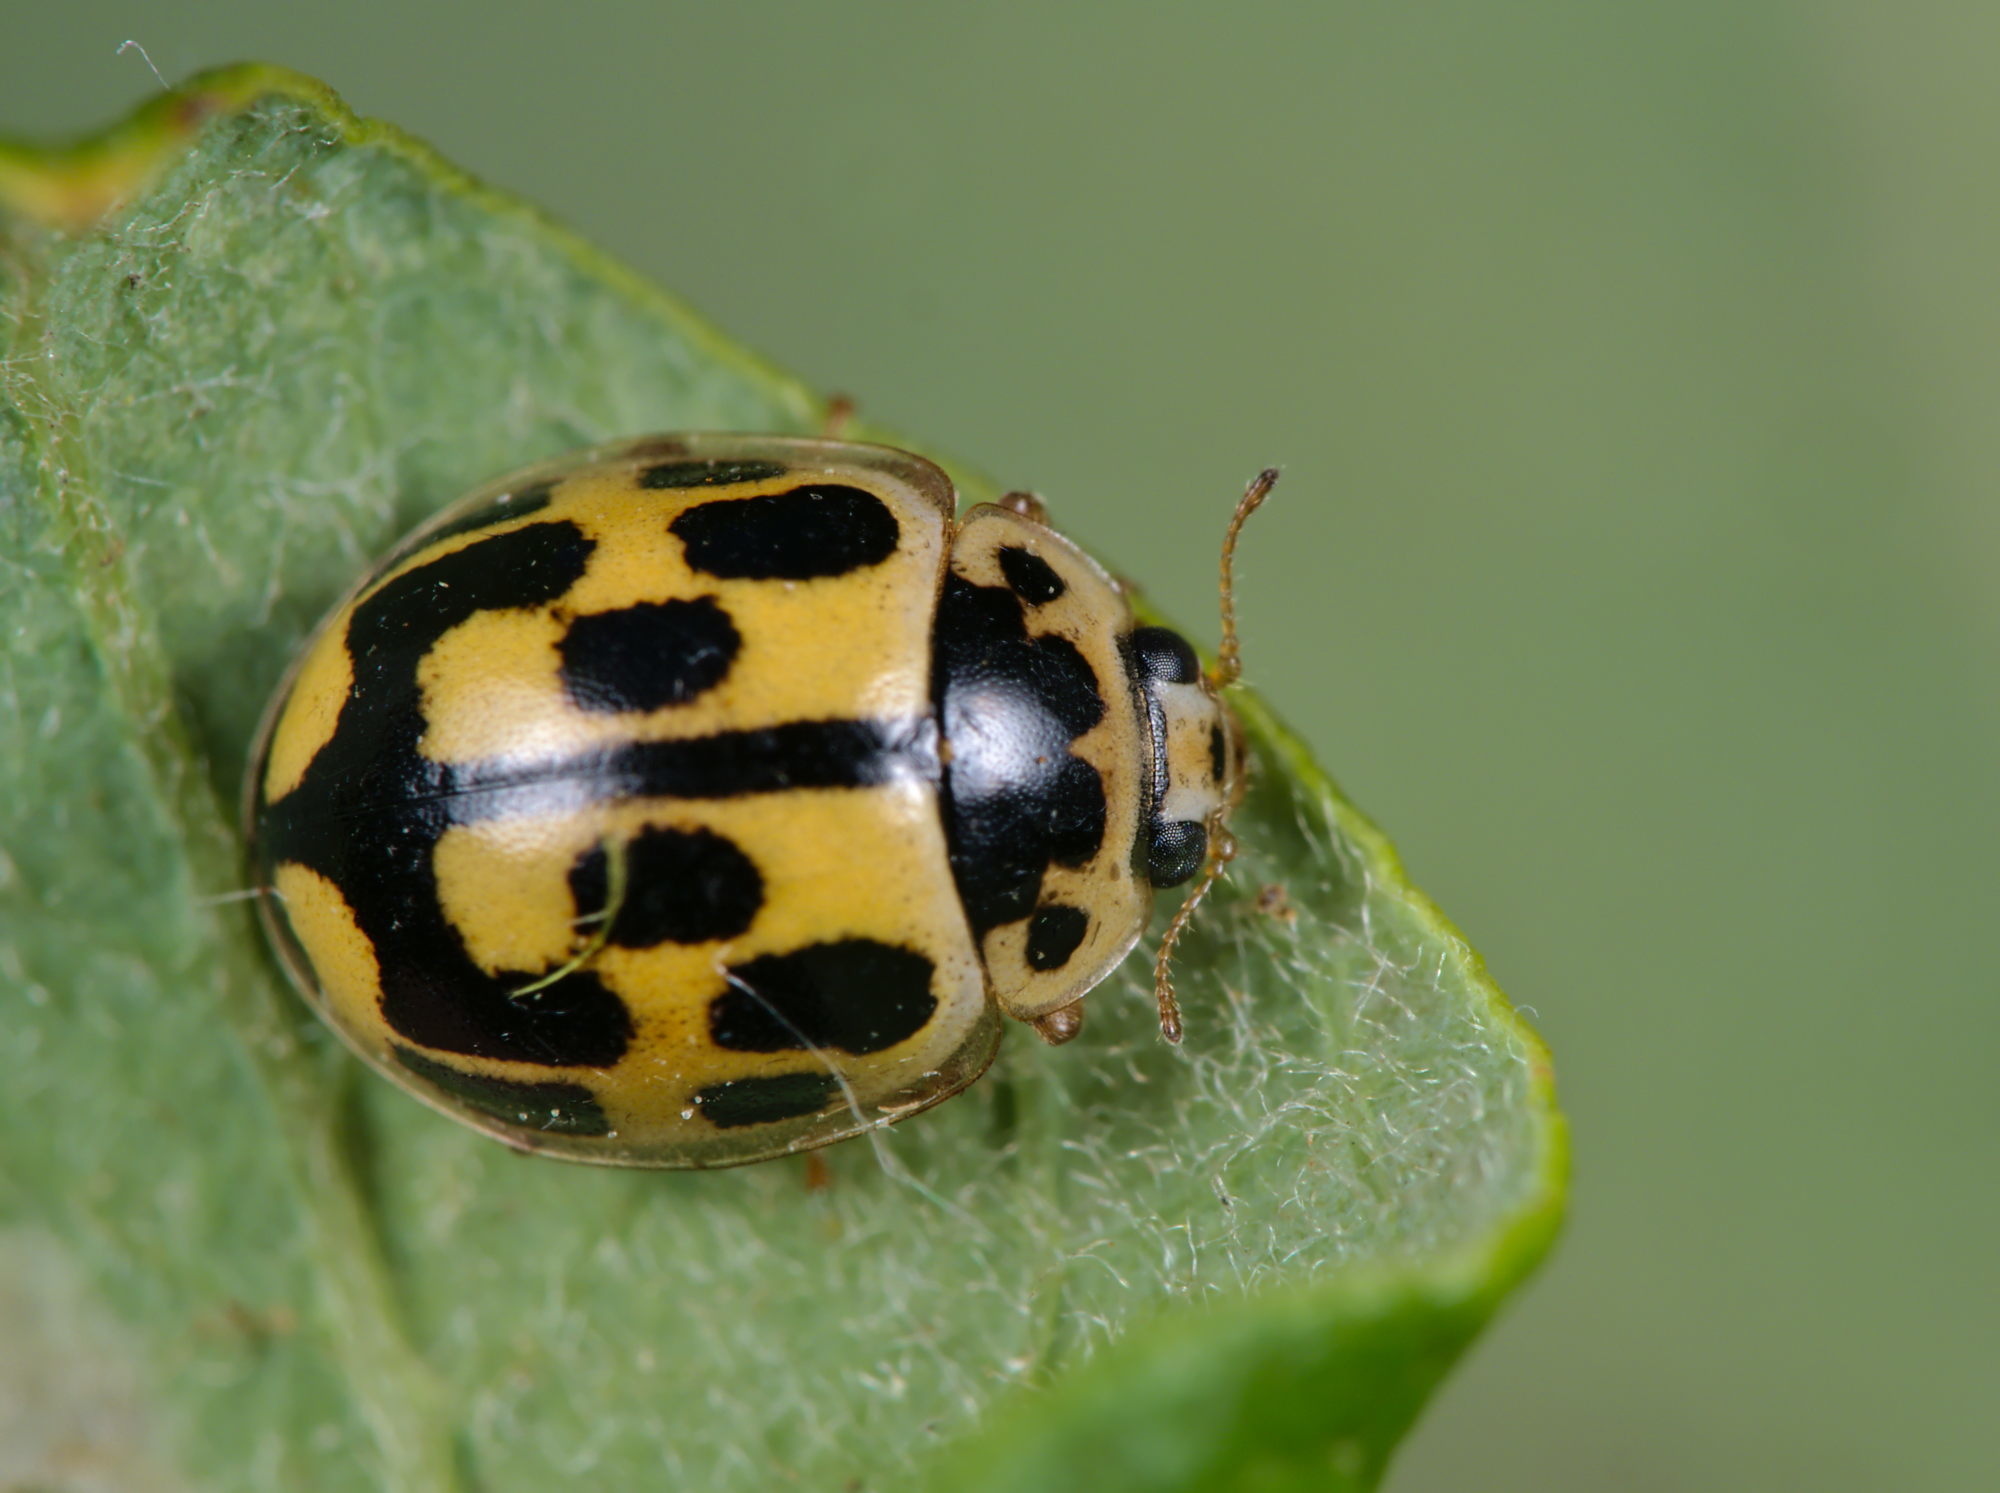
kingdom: Animalia
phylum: Arthropoda
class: Insecta
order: Coleoptera
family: Coccinellidae
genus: Propylaea
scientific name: Propylaea quatuordecimpunctata
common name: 14-spotted ladybird beetle
